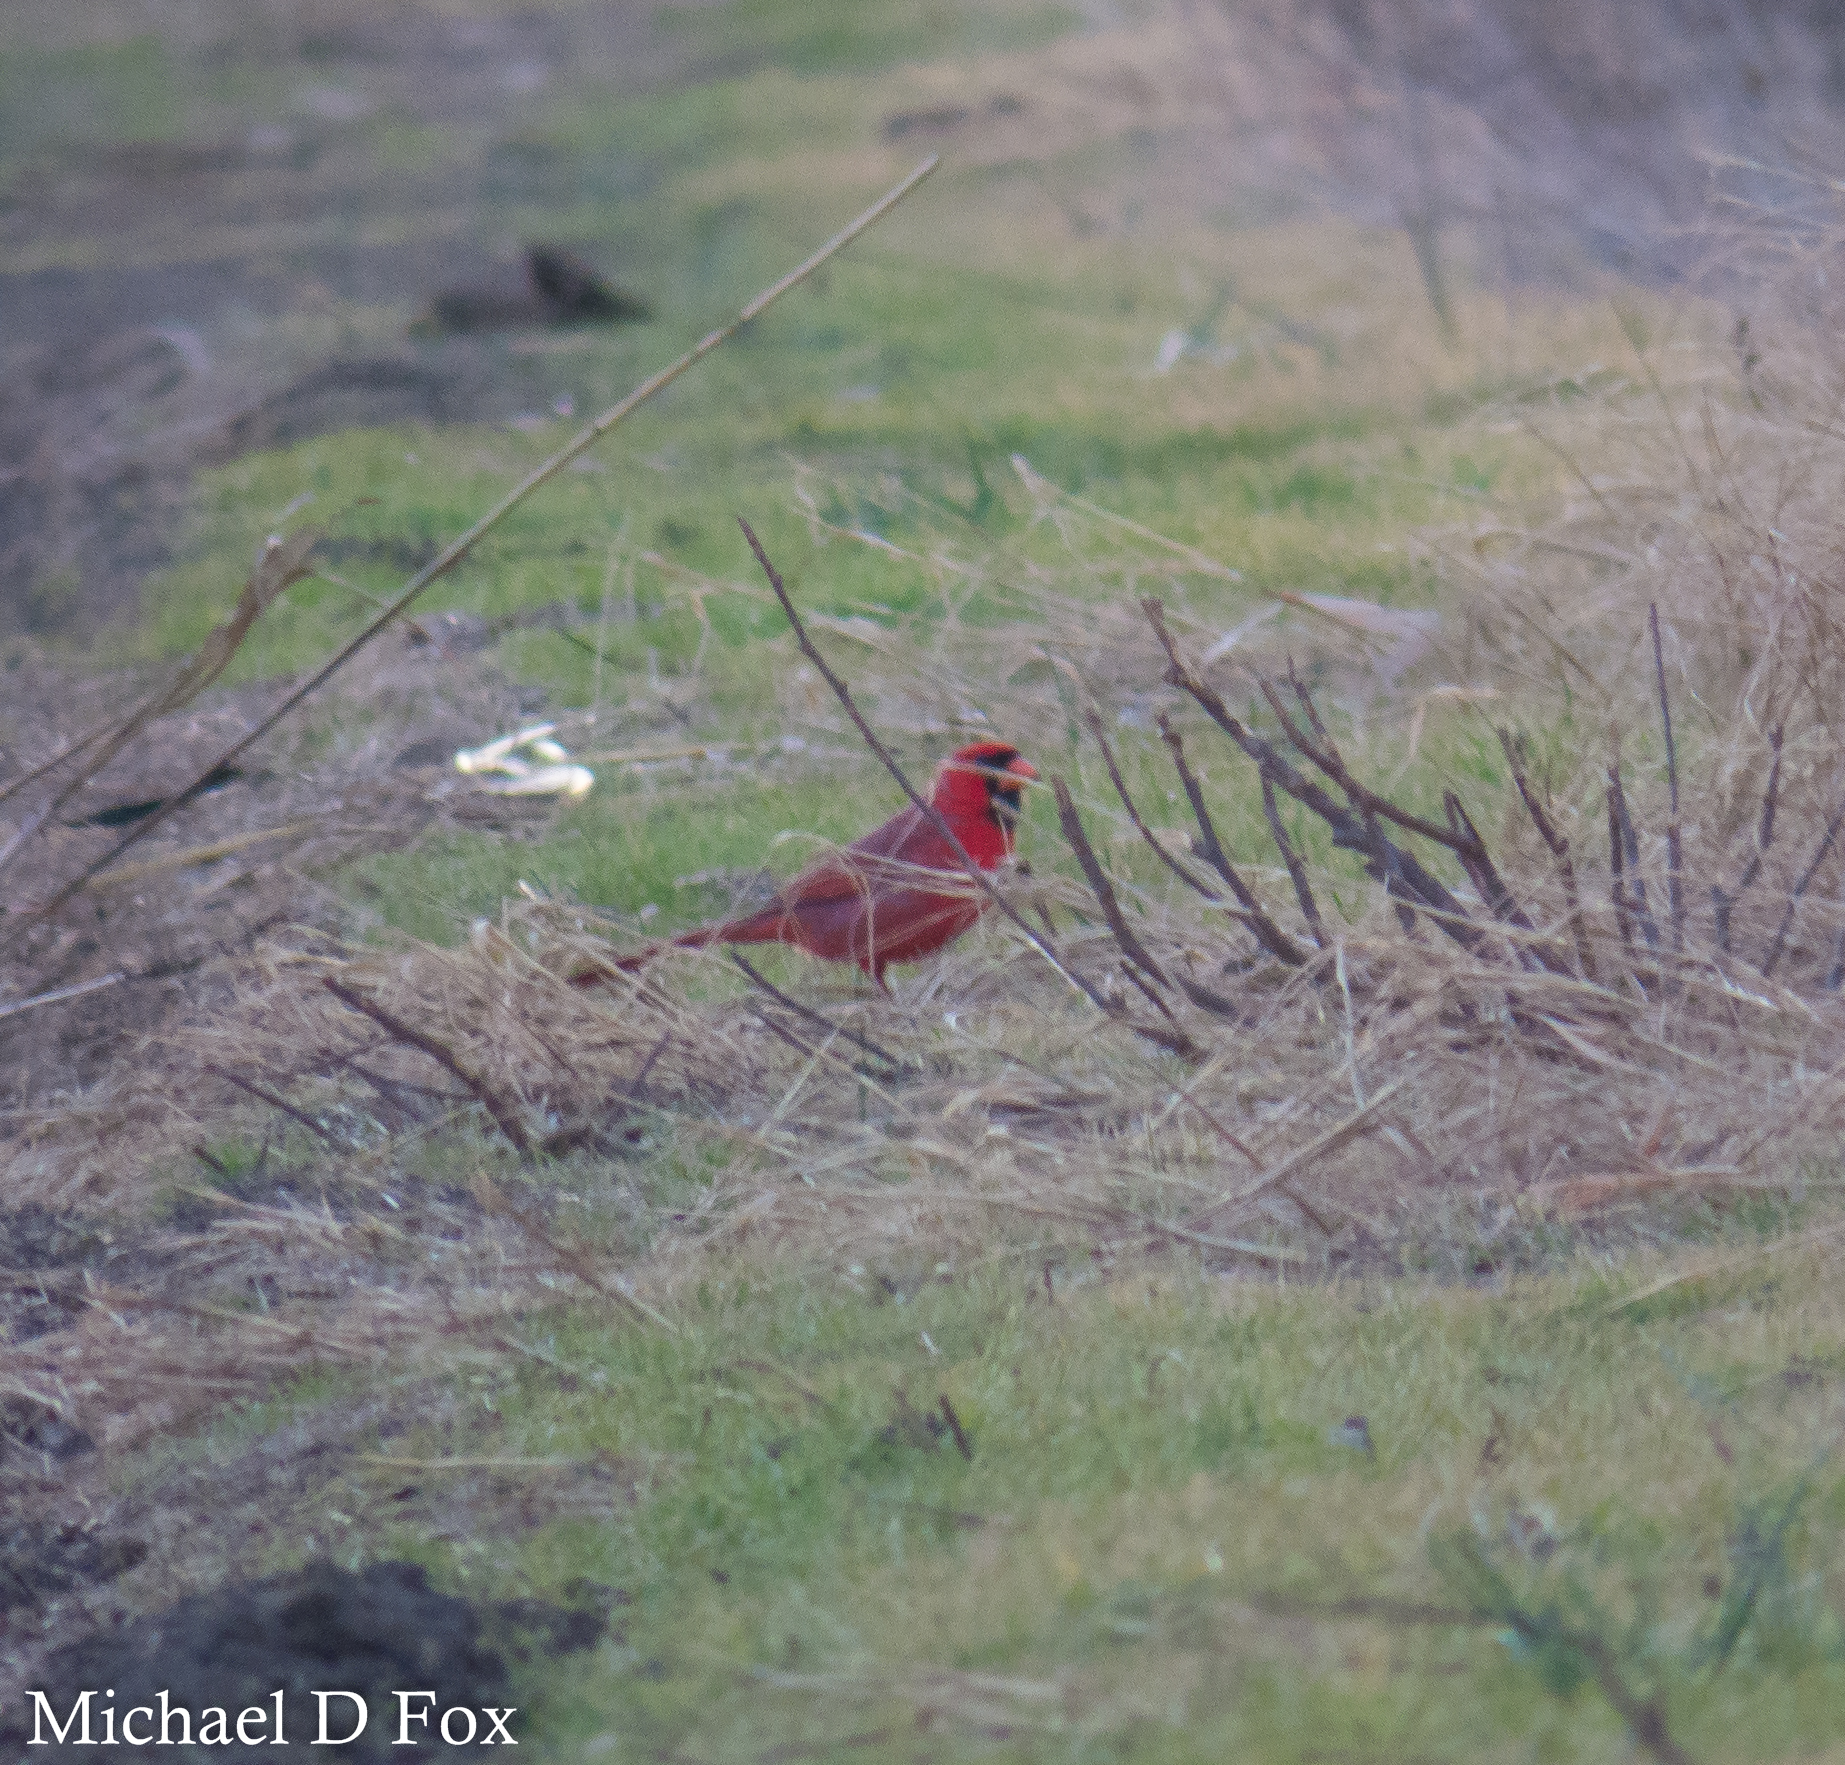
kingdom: Animalia
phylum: Chordata
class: Aves
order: Passeriformes
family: Cardinalidae
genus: Cardinalis
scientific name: Cardinalis cardinalis
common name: Northern cardinal
